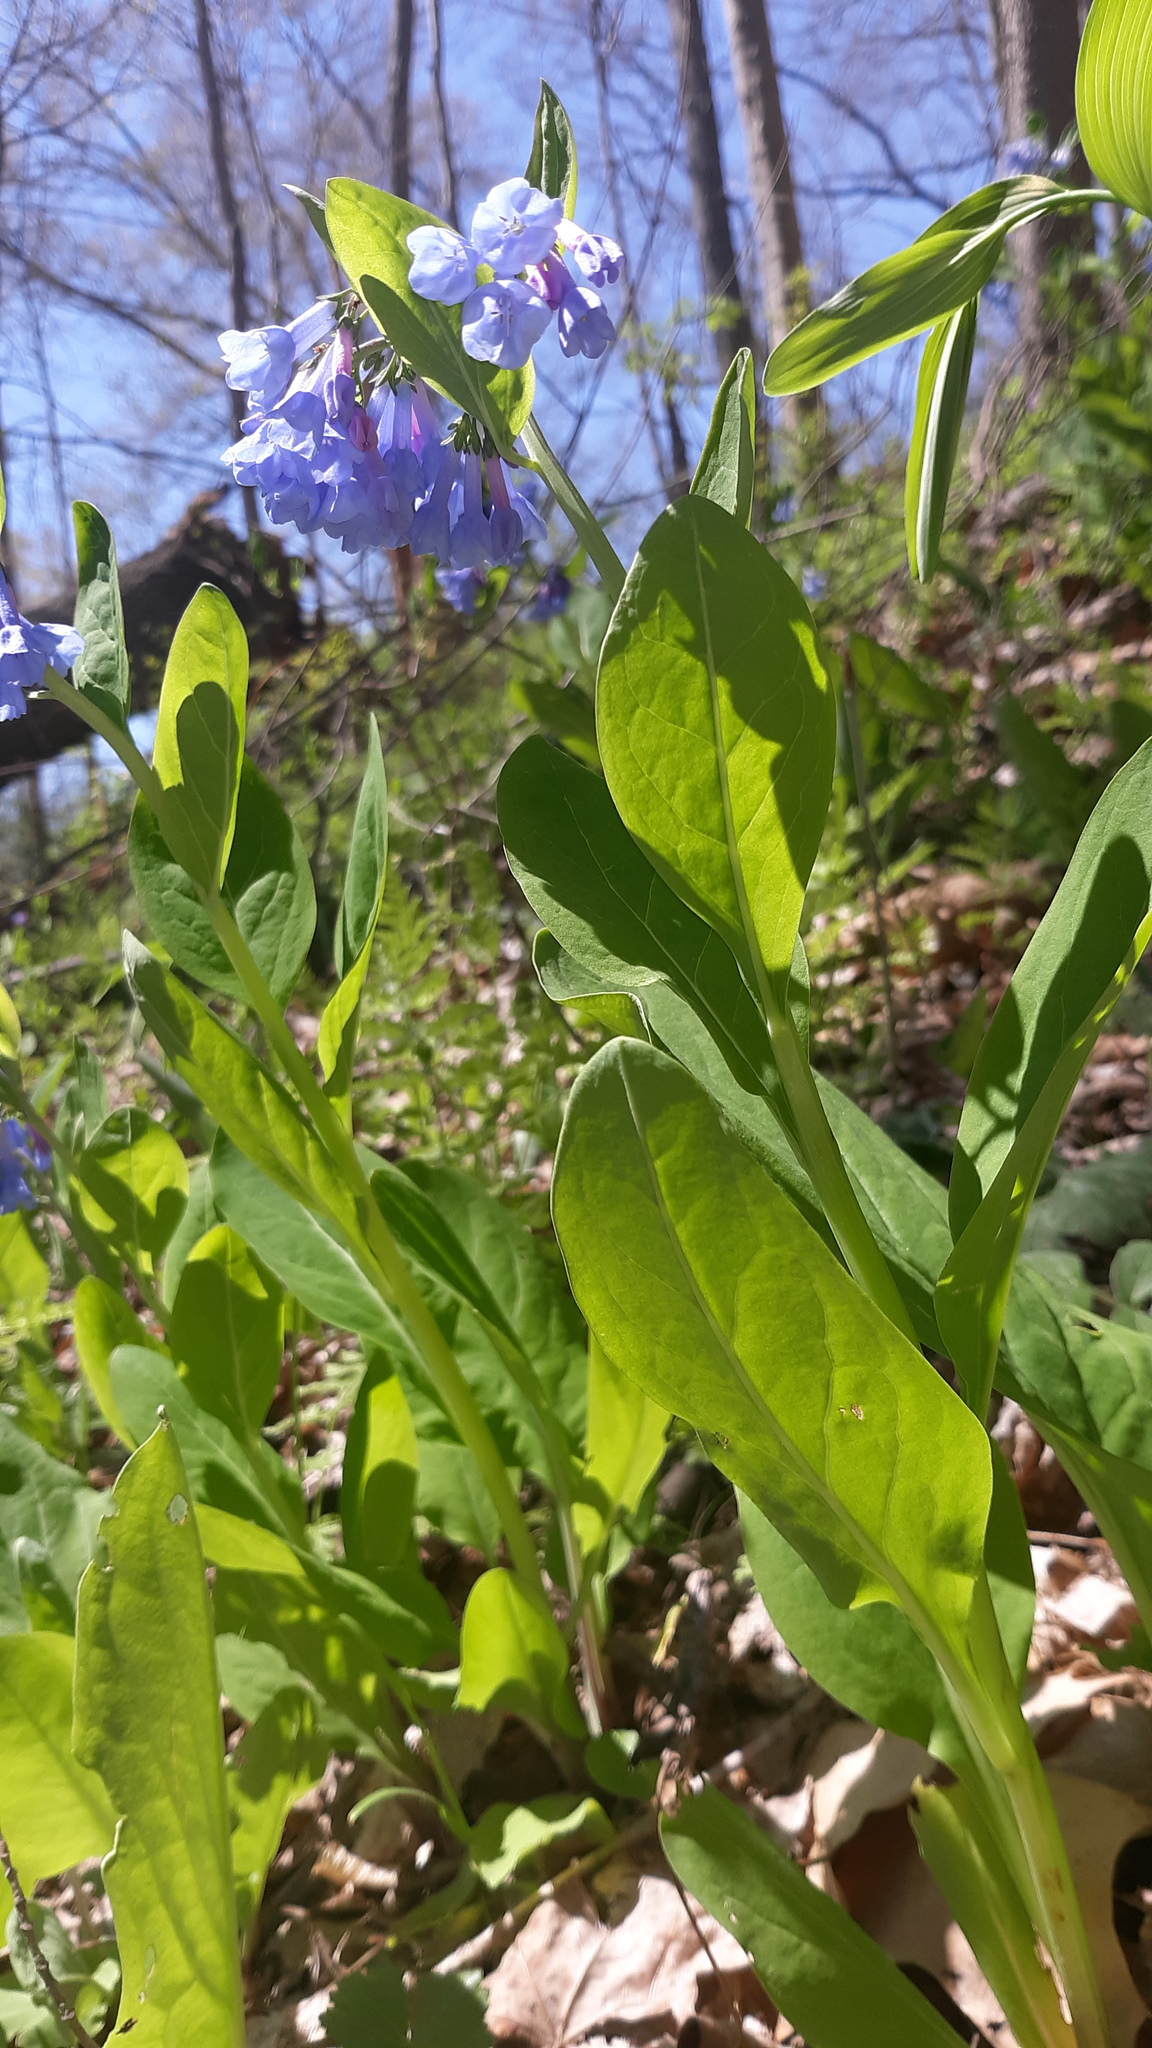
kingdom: Plantae
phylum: Tracheophyta
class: Magnoliopsida
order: Boraginales
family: Boraginaceae
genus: Mertensia
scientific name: Mertensia virginica
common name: Virginia bluebells
